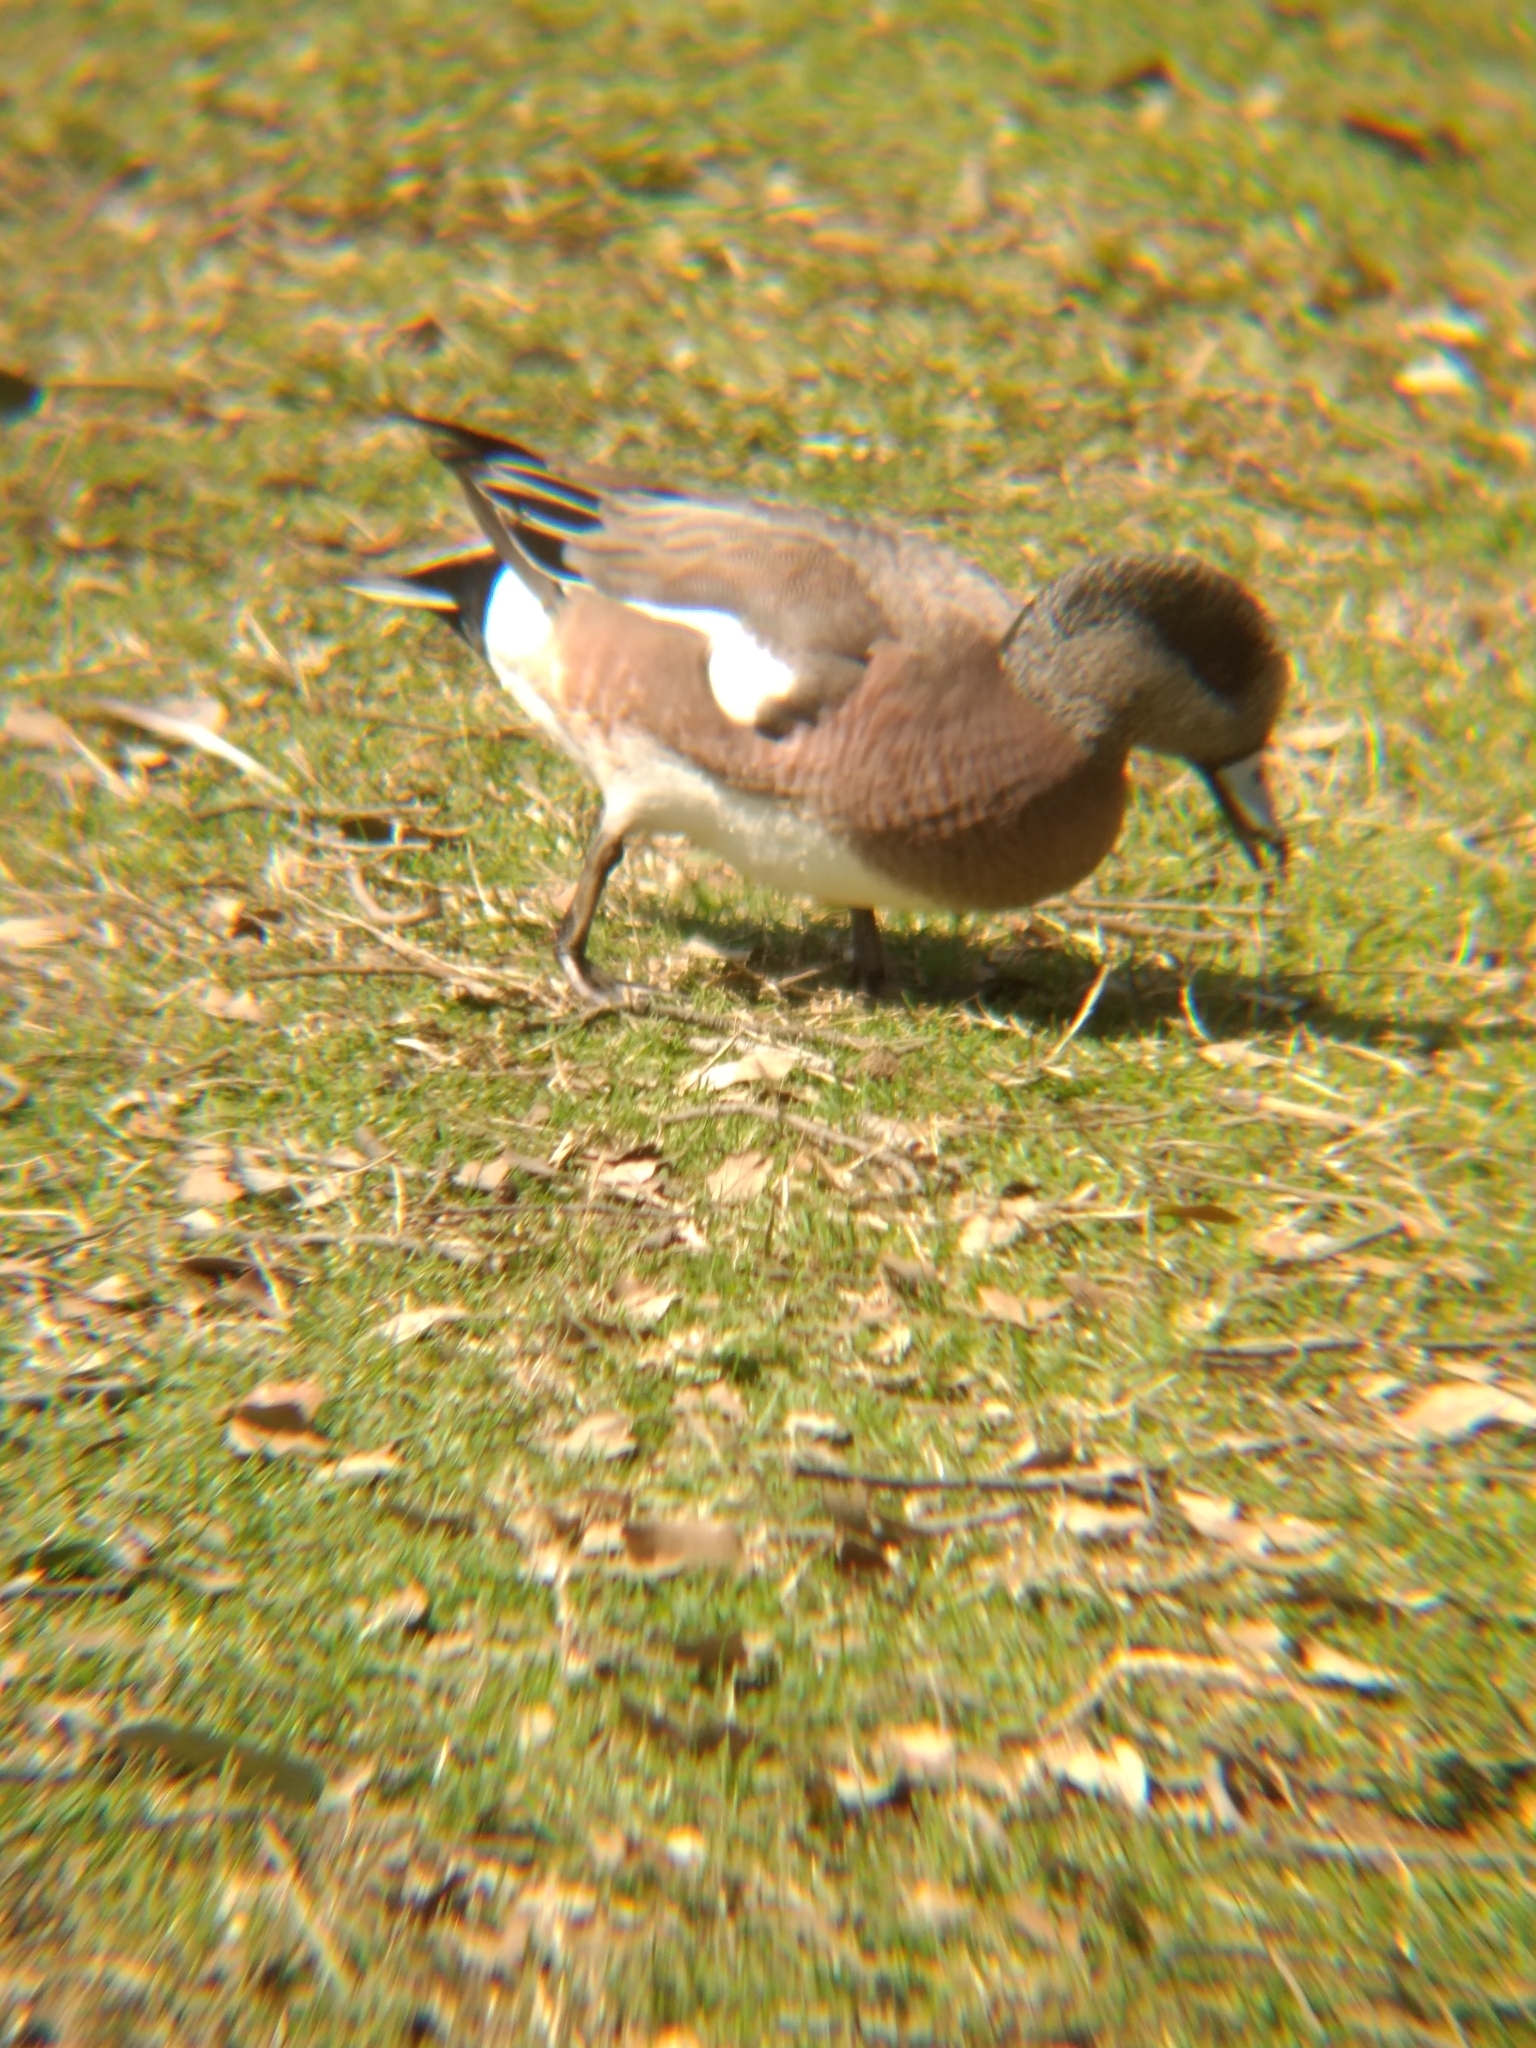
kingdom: Animalia
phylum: Chordata
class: Aves
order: Anseriformes
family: Anatidae
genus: Mareca
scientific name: Mareca americana
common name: American wigeon
